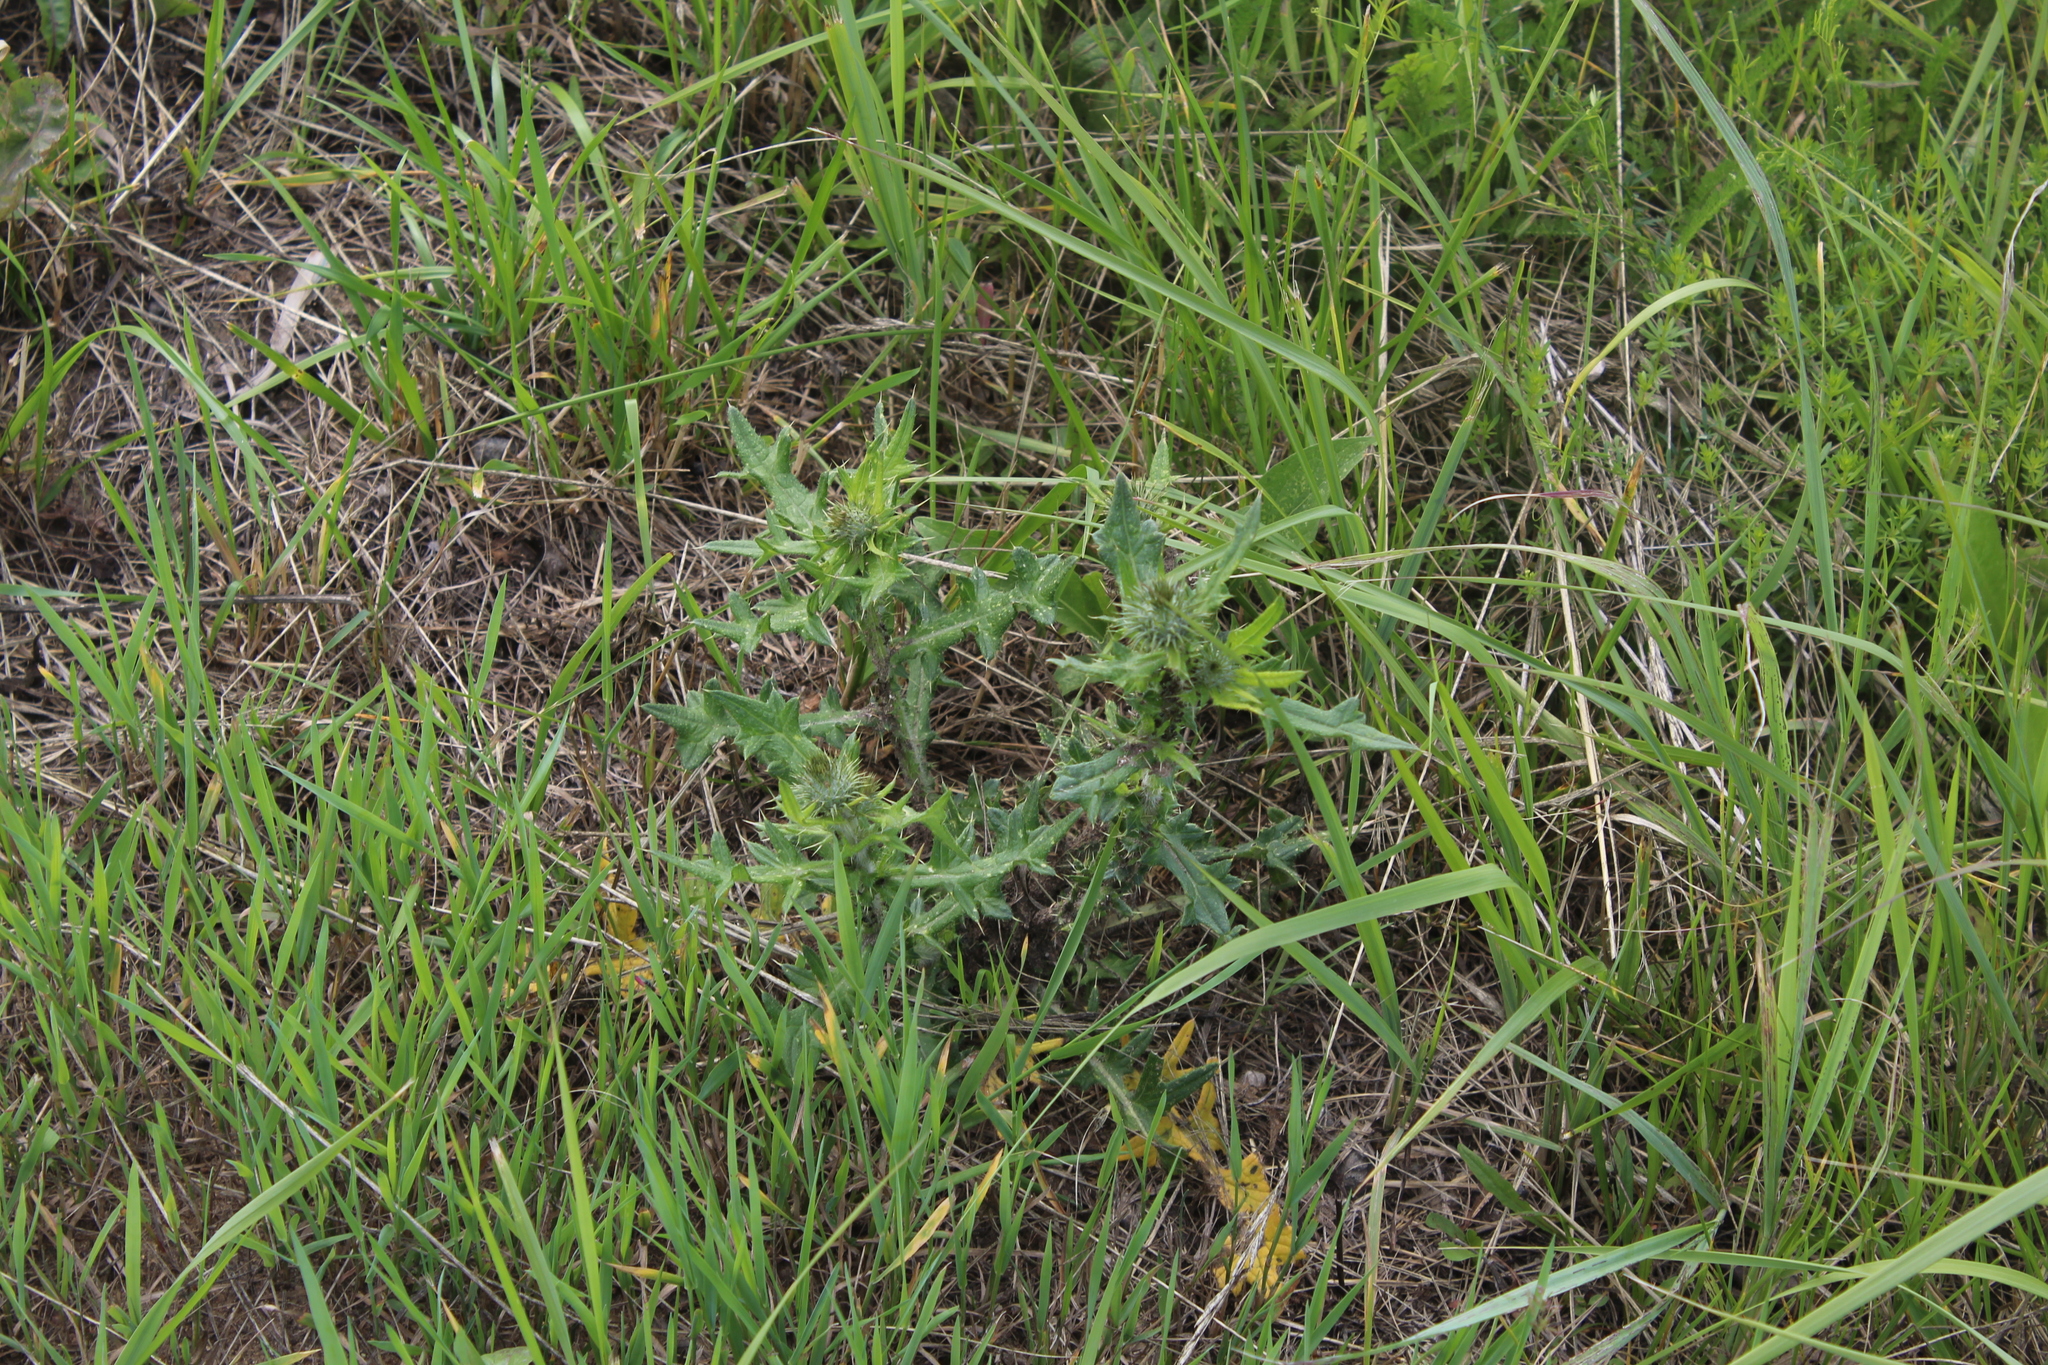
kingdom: Plantae
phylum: Tracheophyta
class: Magnoliopsida
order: Asterales
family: Asteraceae
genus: Cirsium
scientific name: Cirsium vulgare
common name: Bull thistle
